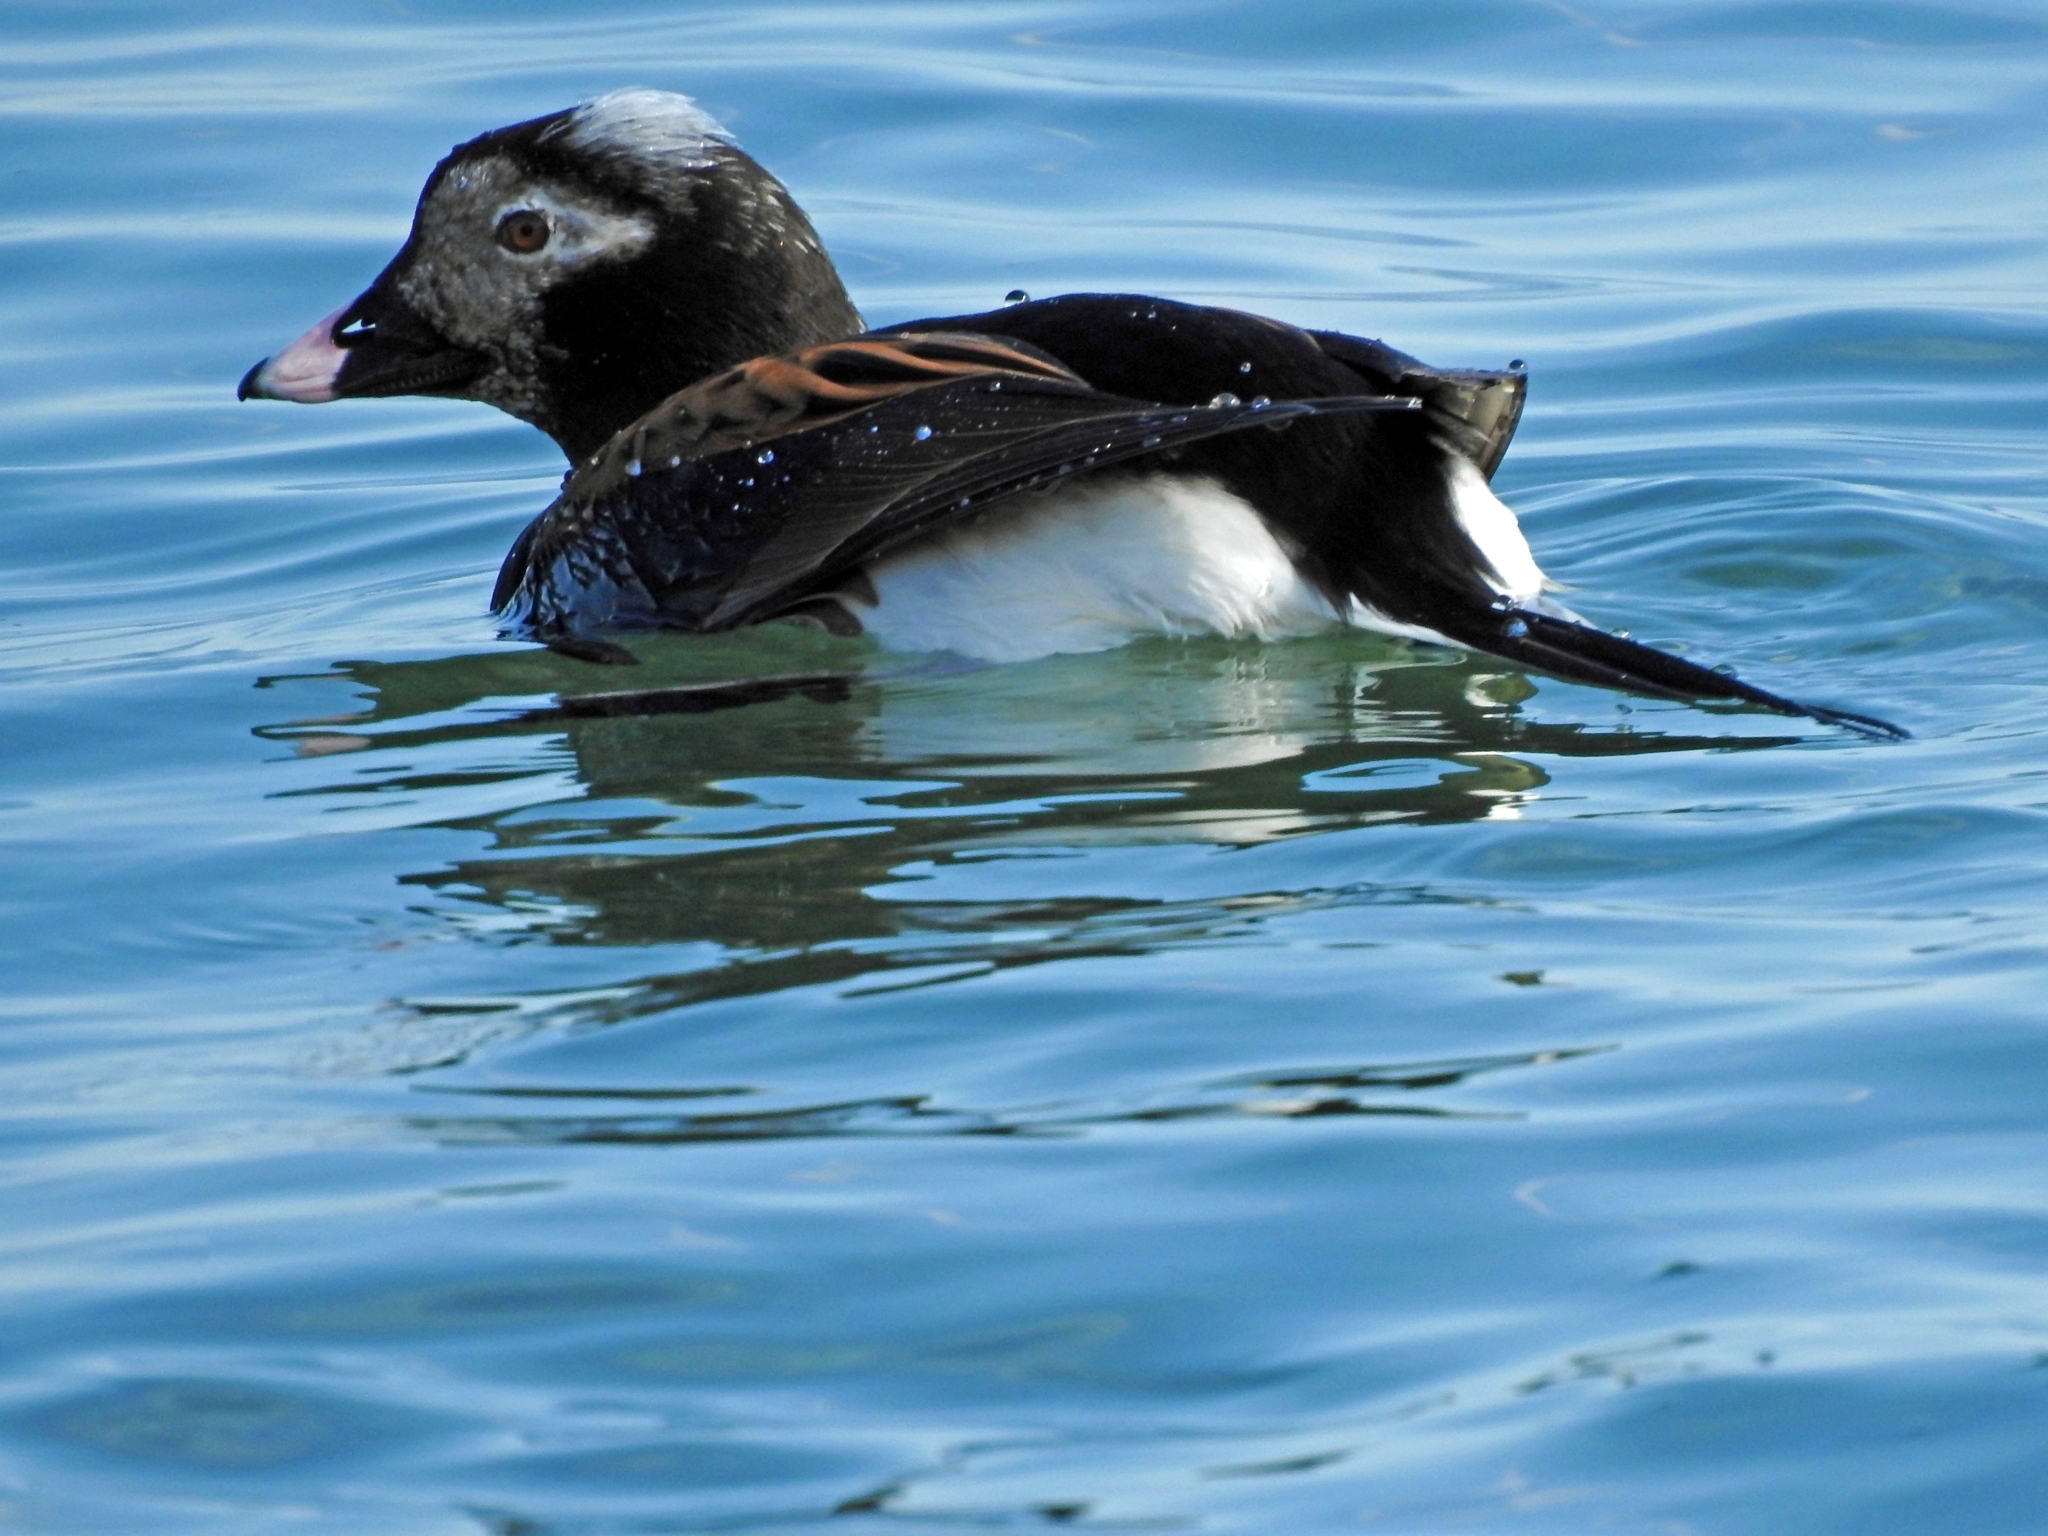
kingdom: Animalia
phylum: Chordata
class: Aves
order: Anseriformes
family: Anatidae
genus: Clangula
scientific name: Clangula hyemalis
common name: Long-tailed duck
